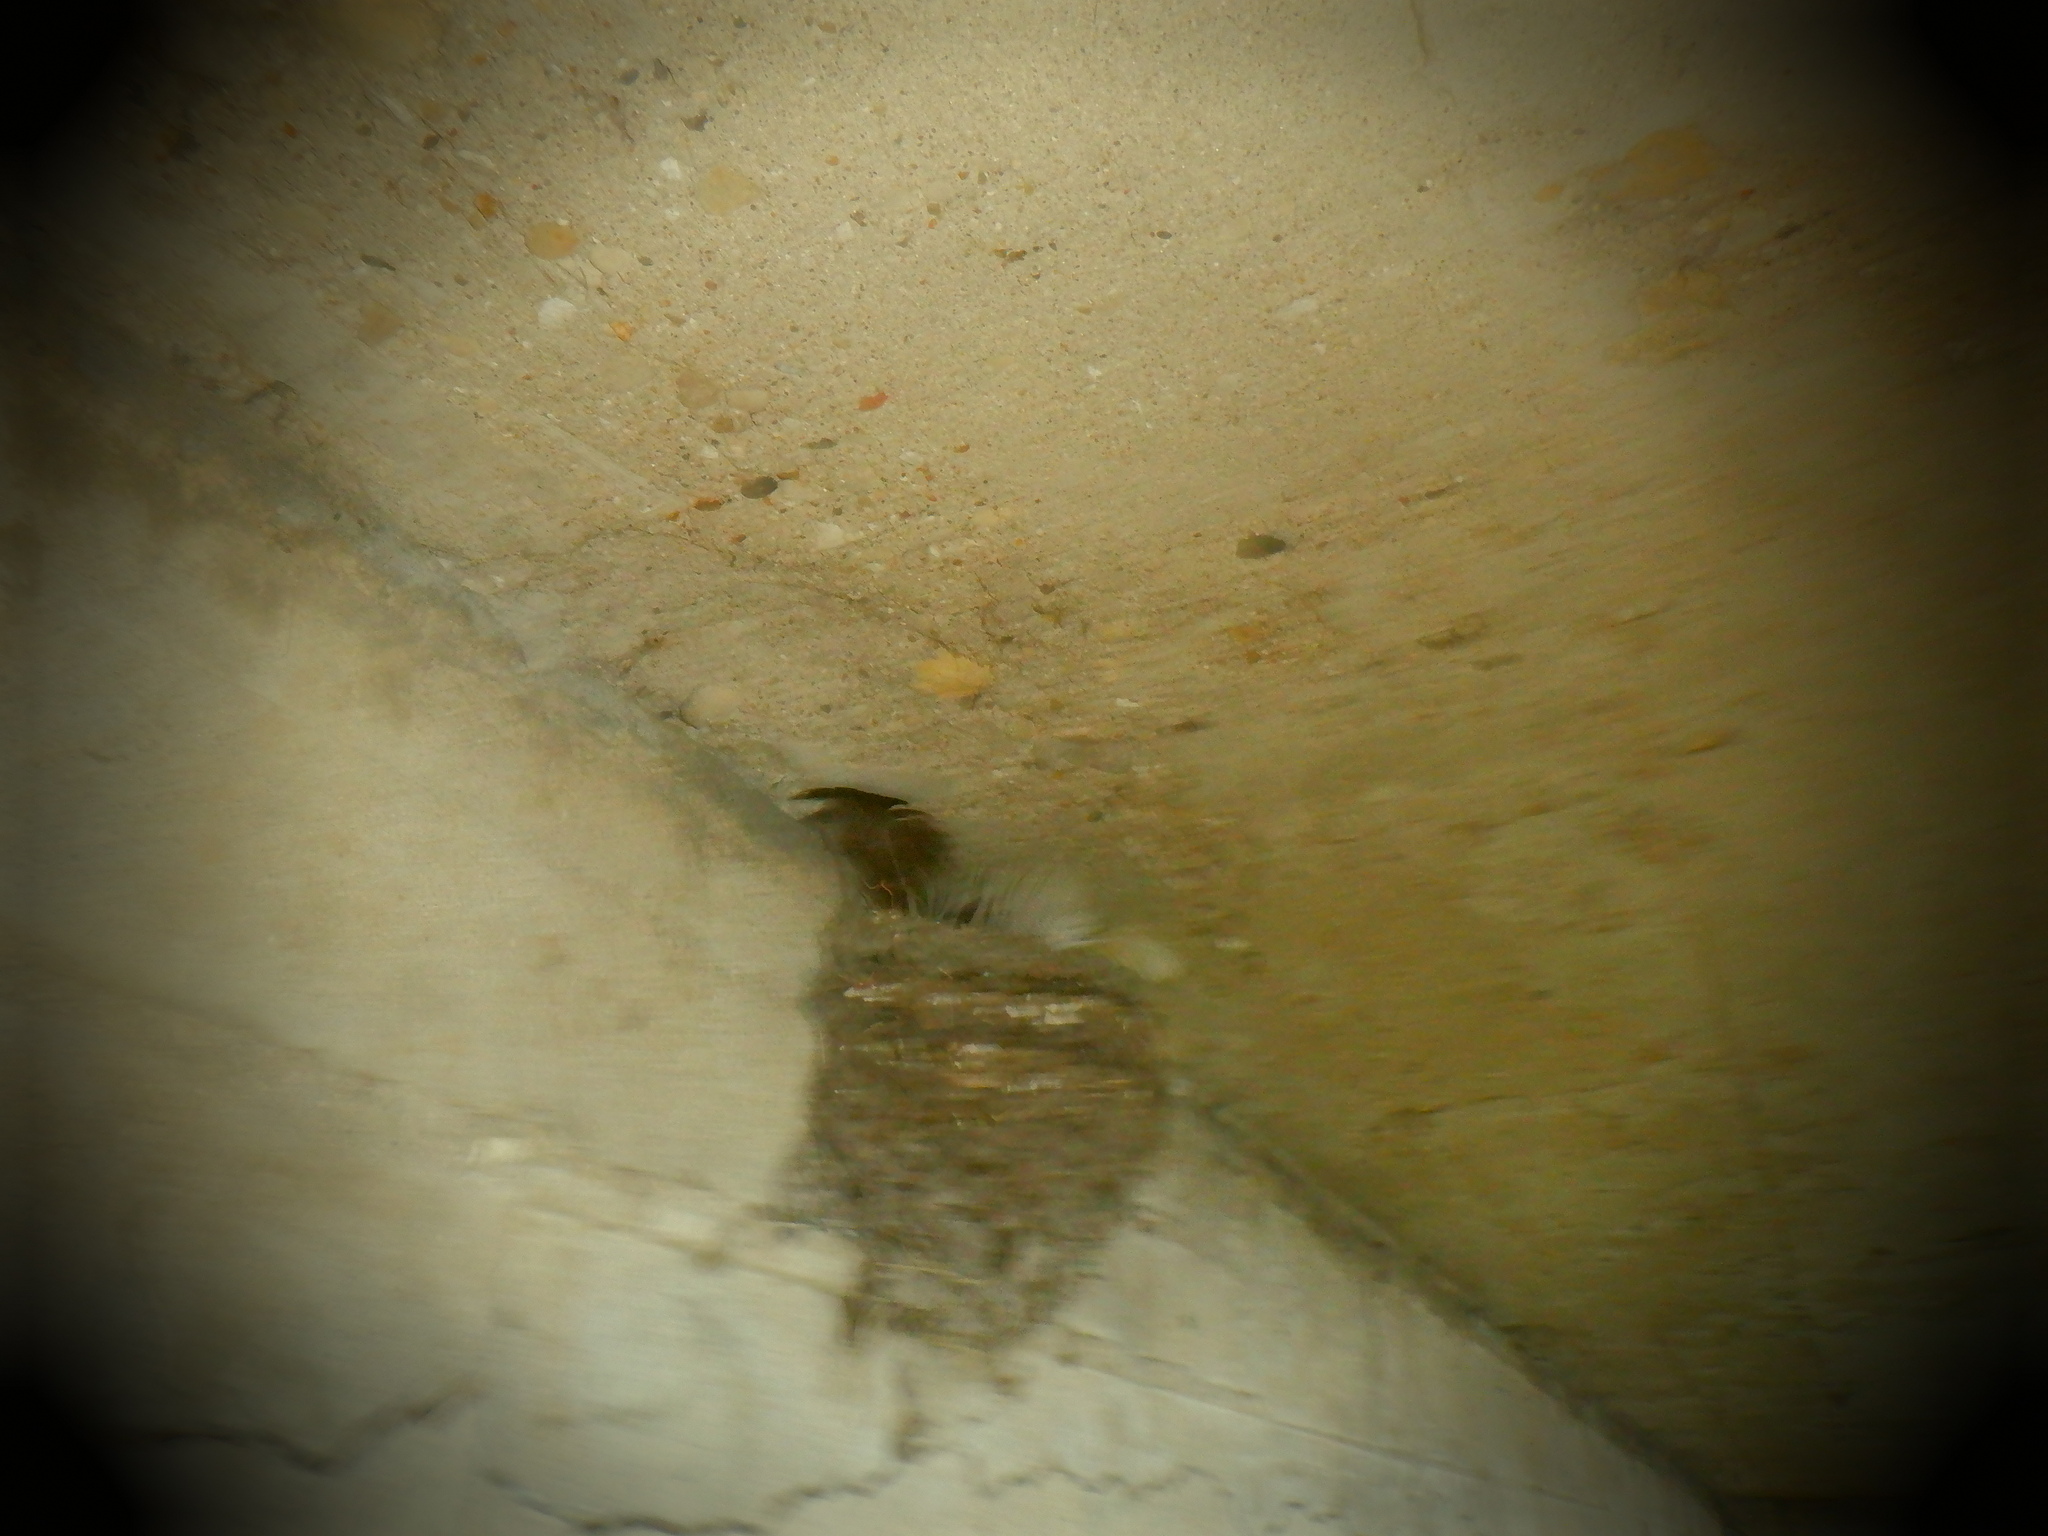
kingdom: Animalia
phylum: Chordata
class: Aves
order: Passeriformes
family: Hirundinidae
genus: Hirundo
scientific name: Hirundo rustica
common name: Barn swallow
